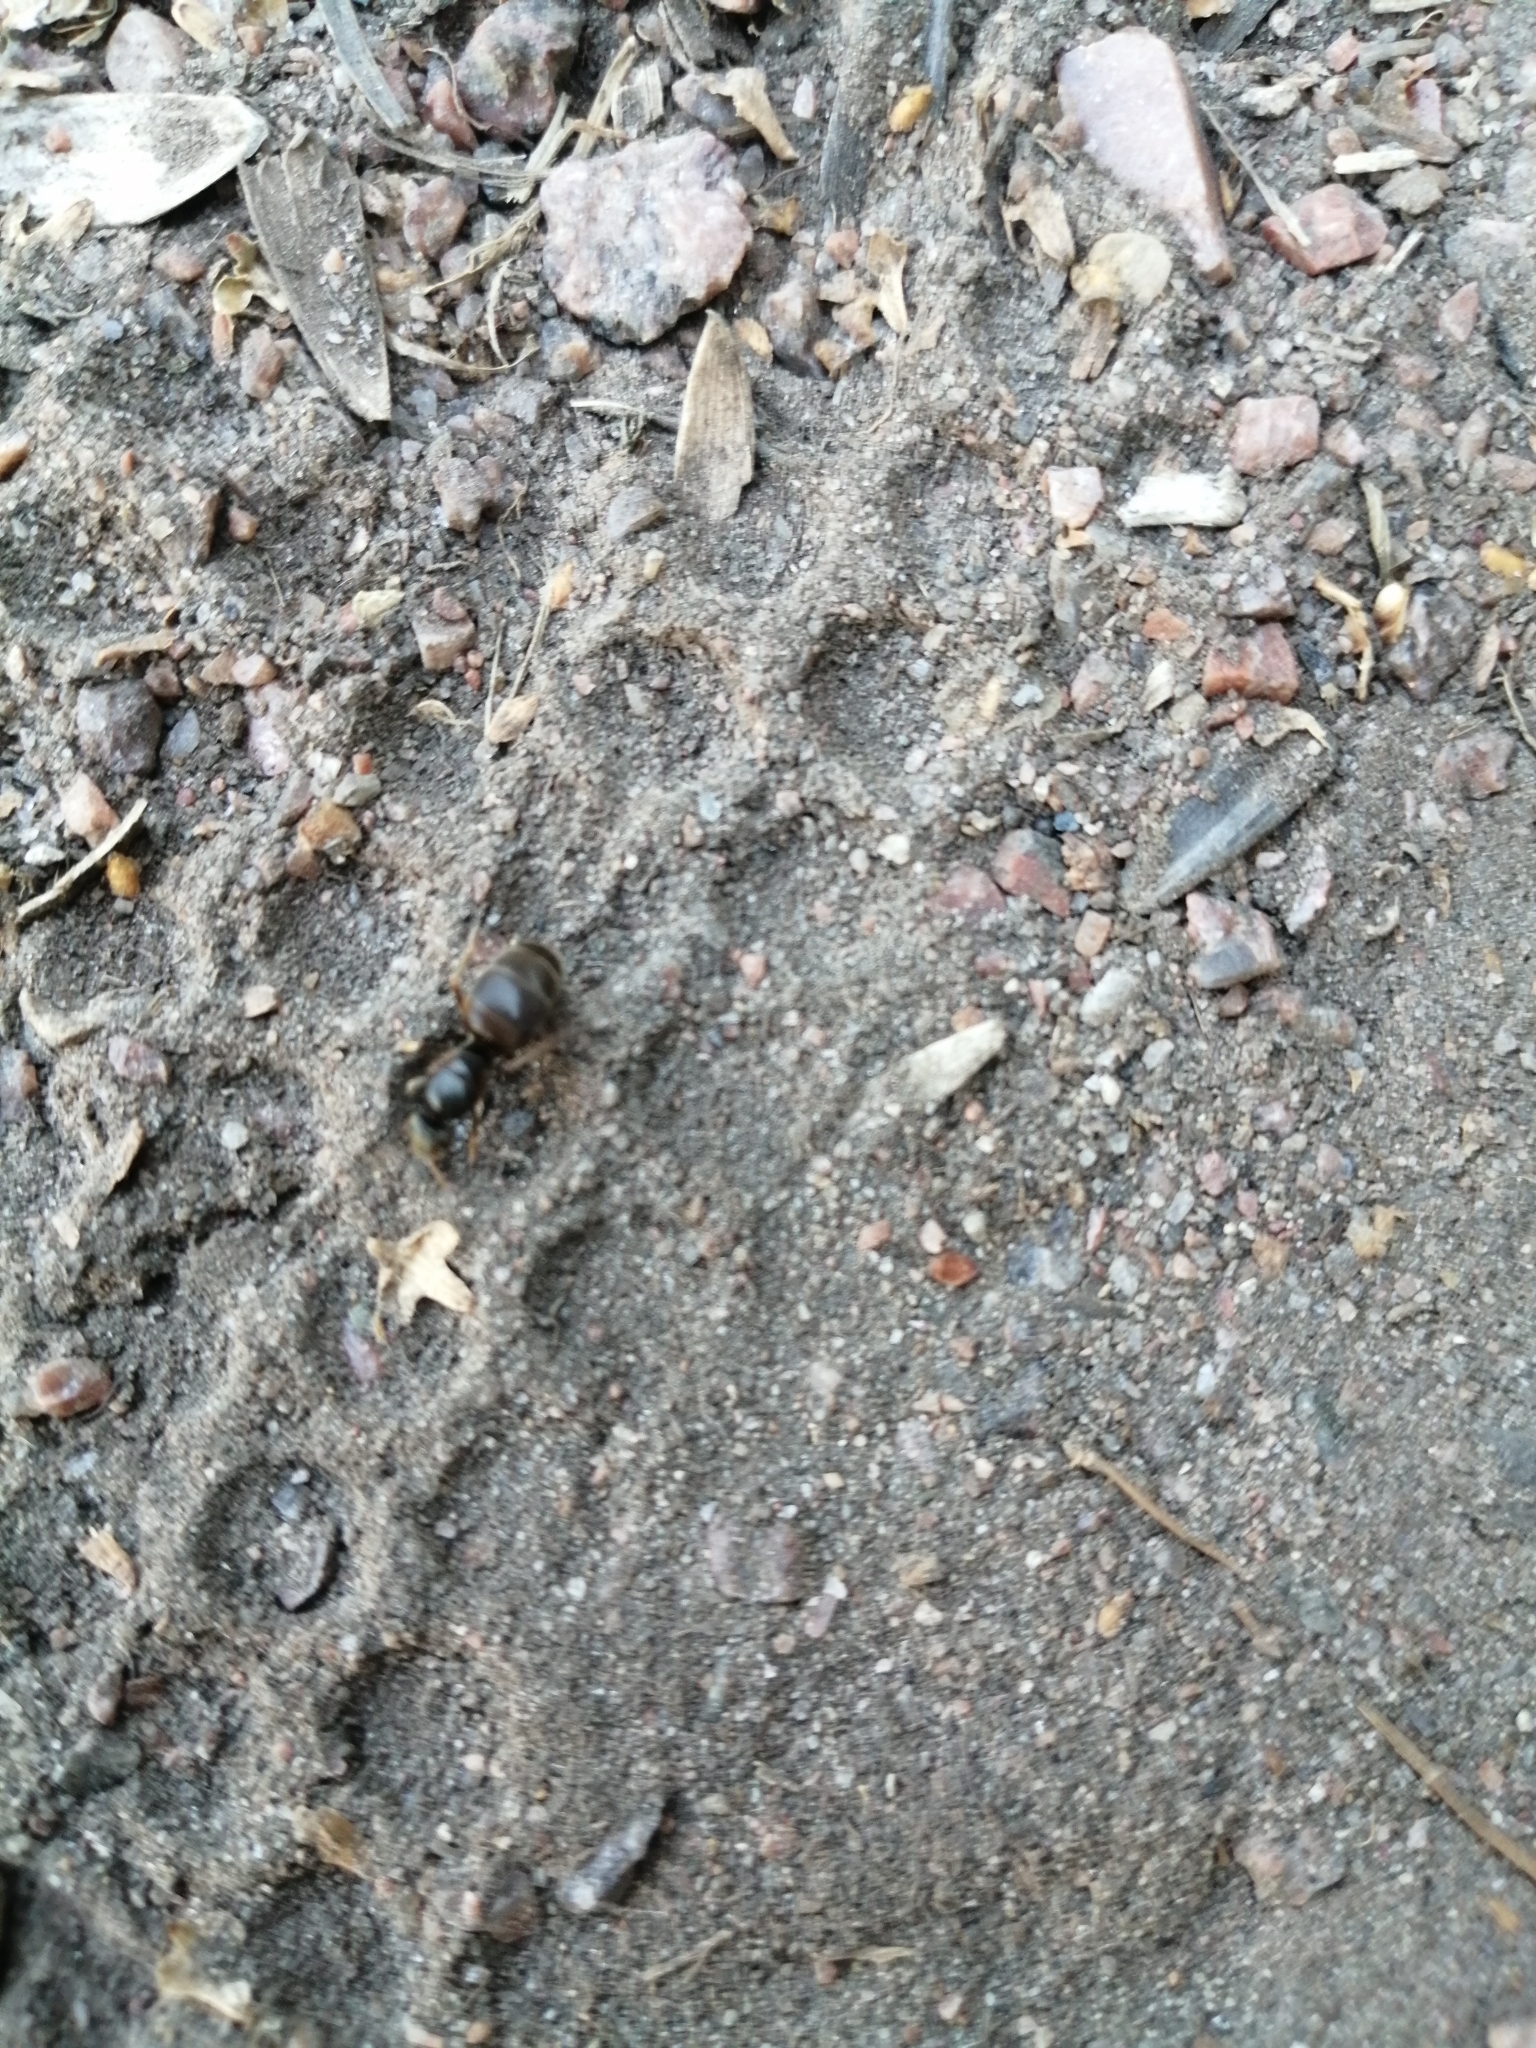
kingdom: Animalia
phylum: Arthropoda
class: Insecta
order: Hymenoptera
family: Formicidae
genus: Lasius
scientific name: Lasius
